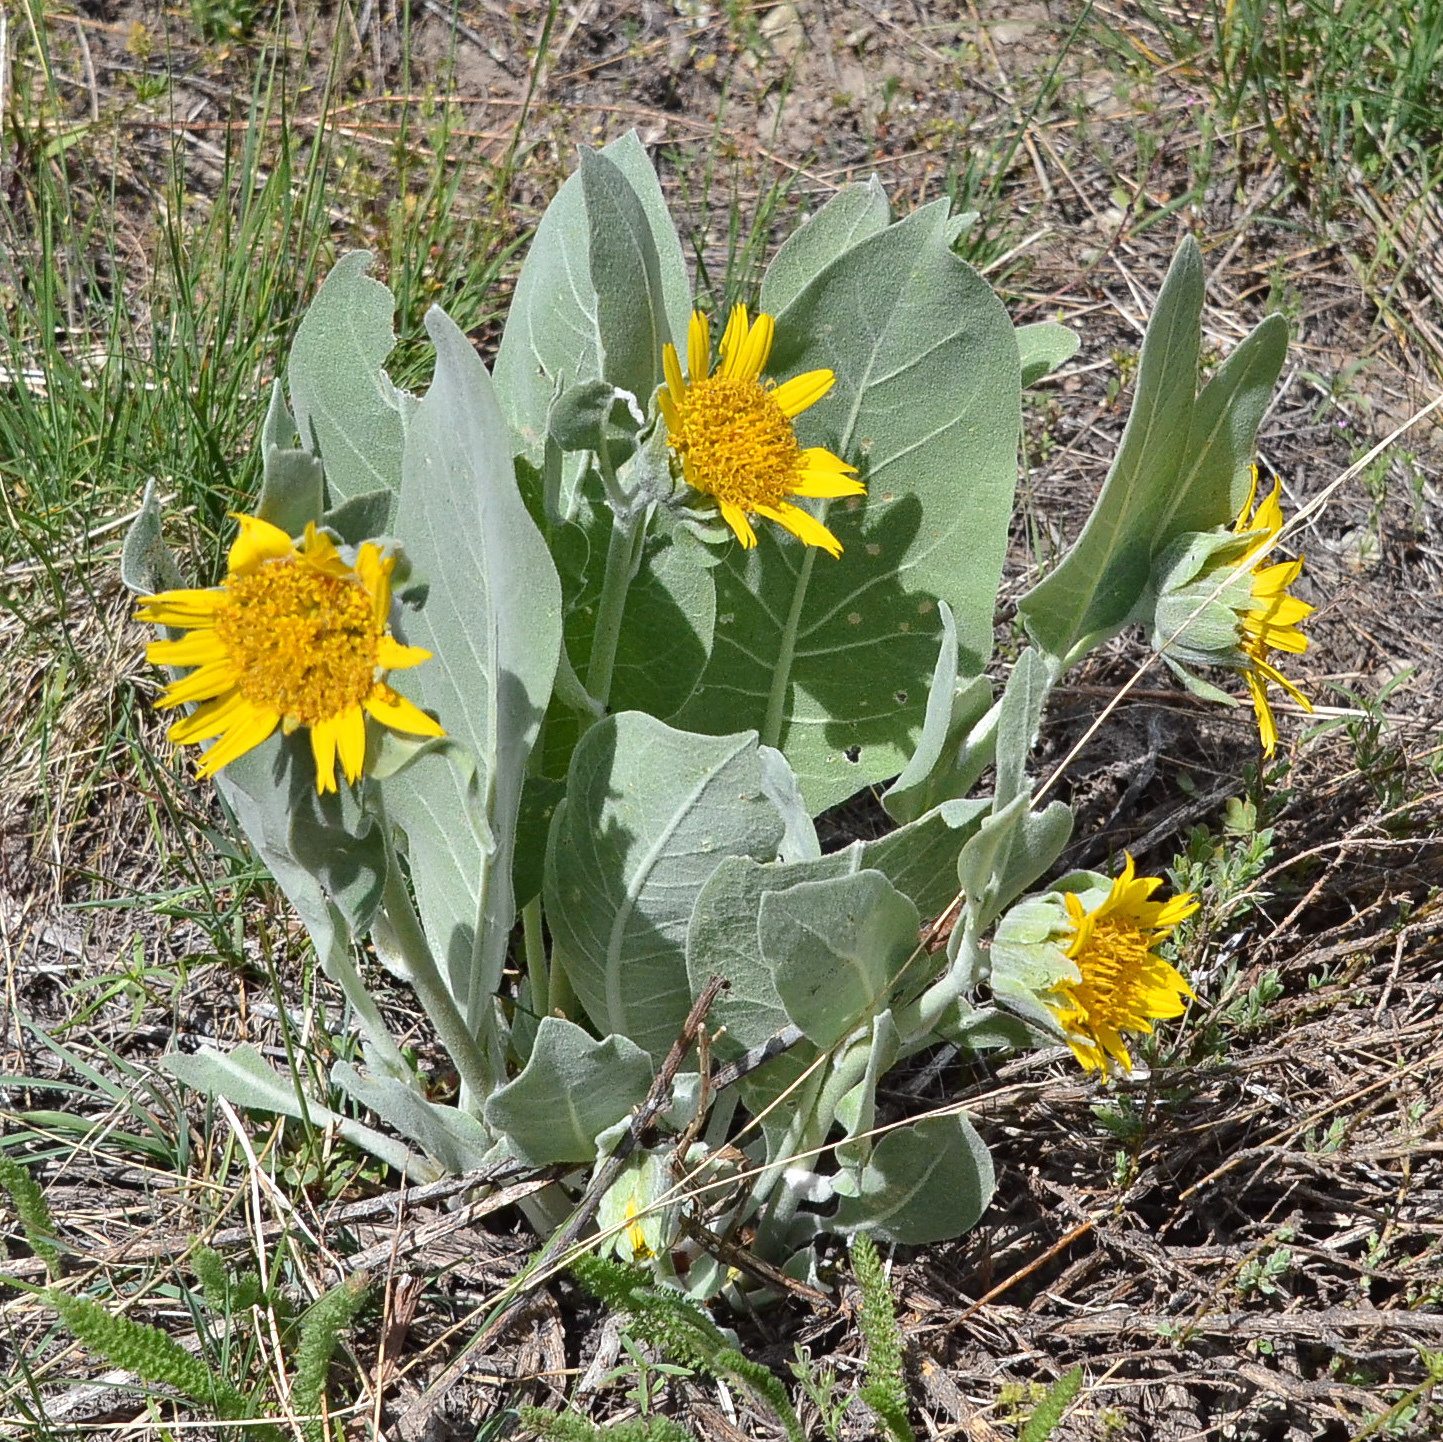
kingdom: Plantae
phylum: Tracheophyta
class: Magnoliopsida
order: Asterales
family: Asteraceae
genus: Wyethia
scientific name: Wyethia helenioides
